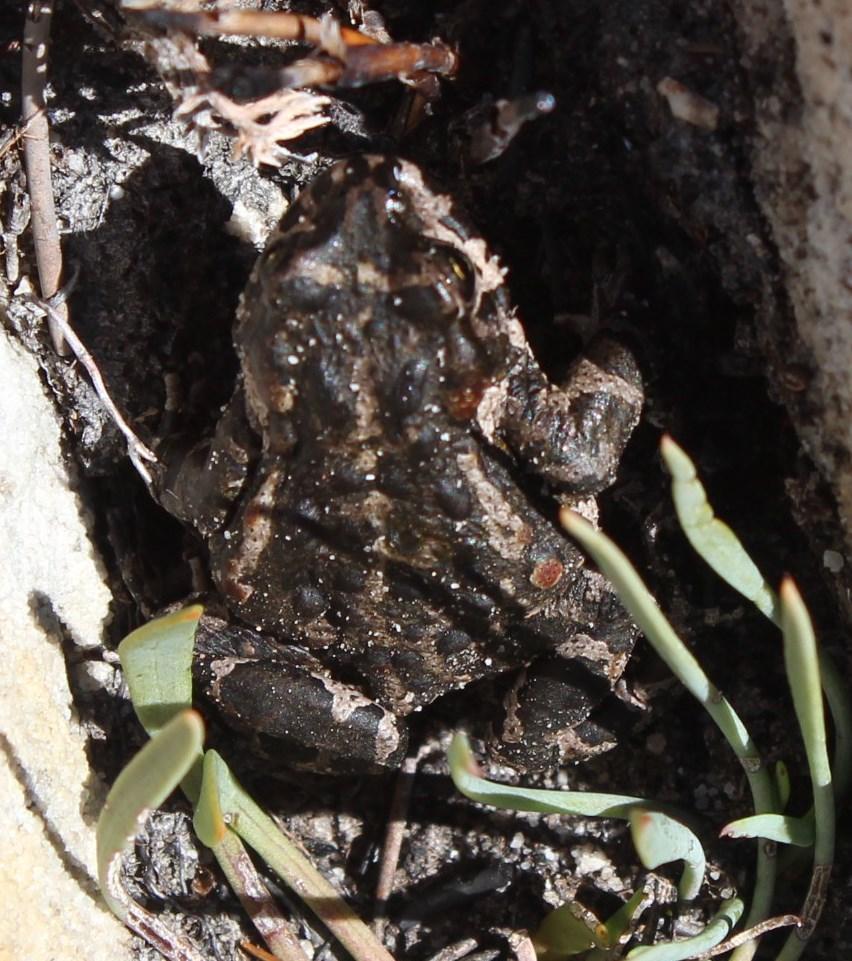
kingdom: Animalia
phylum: Chordata
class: Amphibia
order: Anura
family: Bufonidae
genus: Capensibufo
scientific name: Capensibufo tradouwi
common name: Tradouw mountain toadlet
